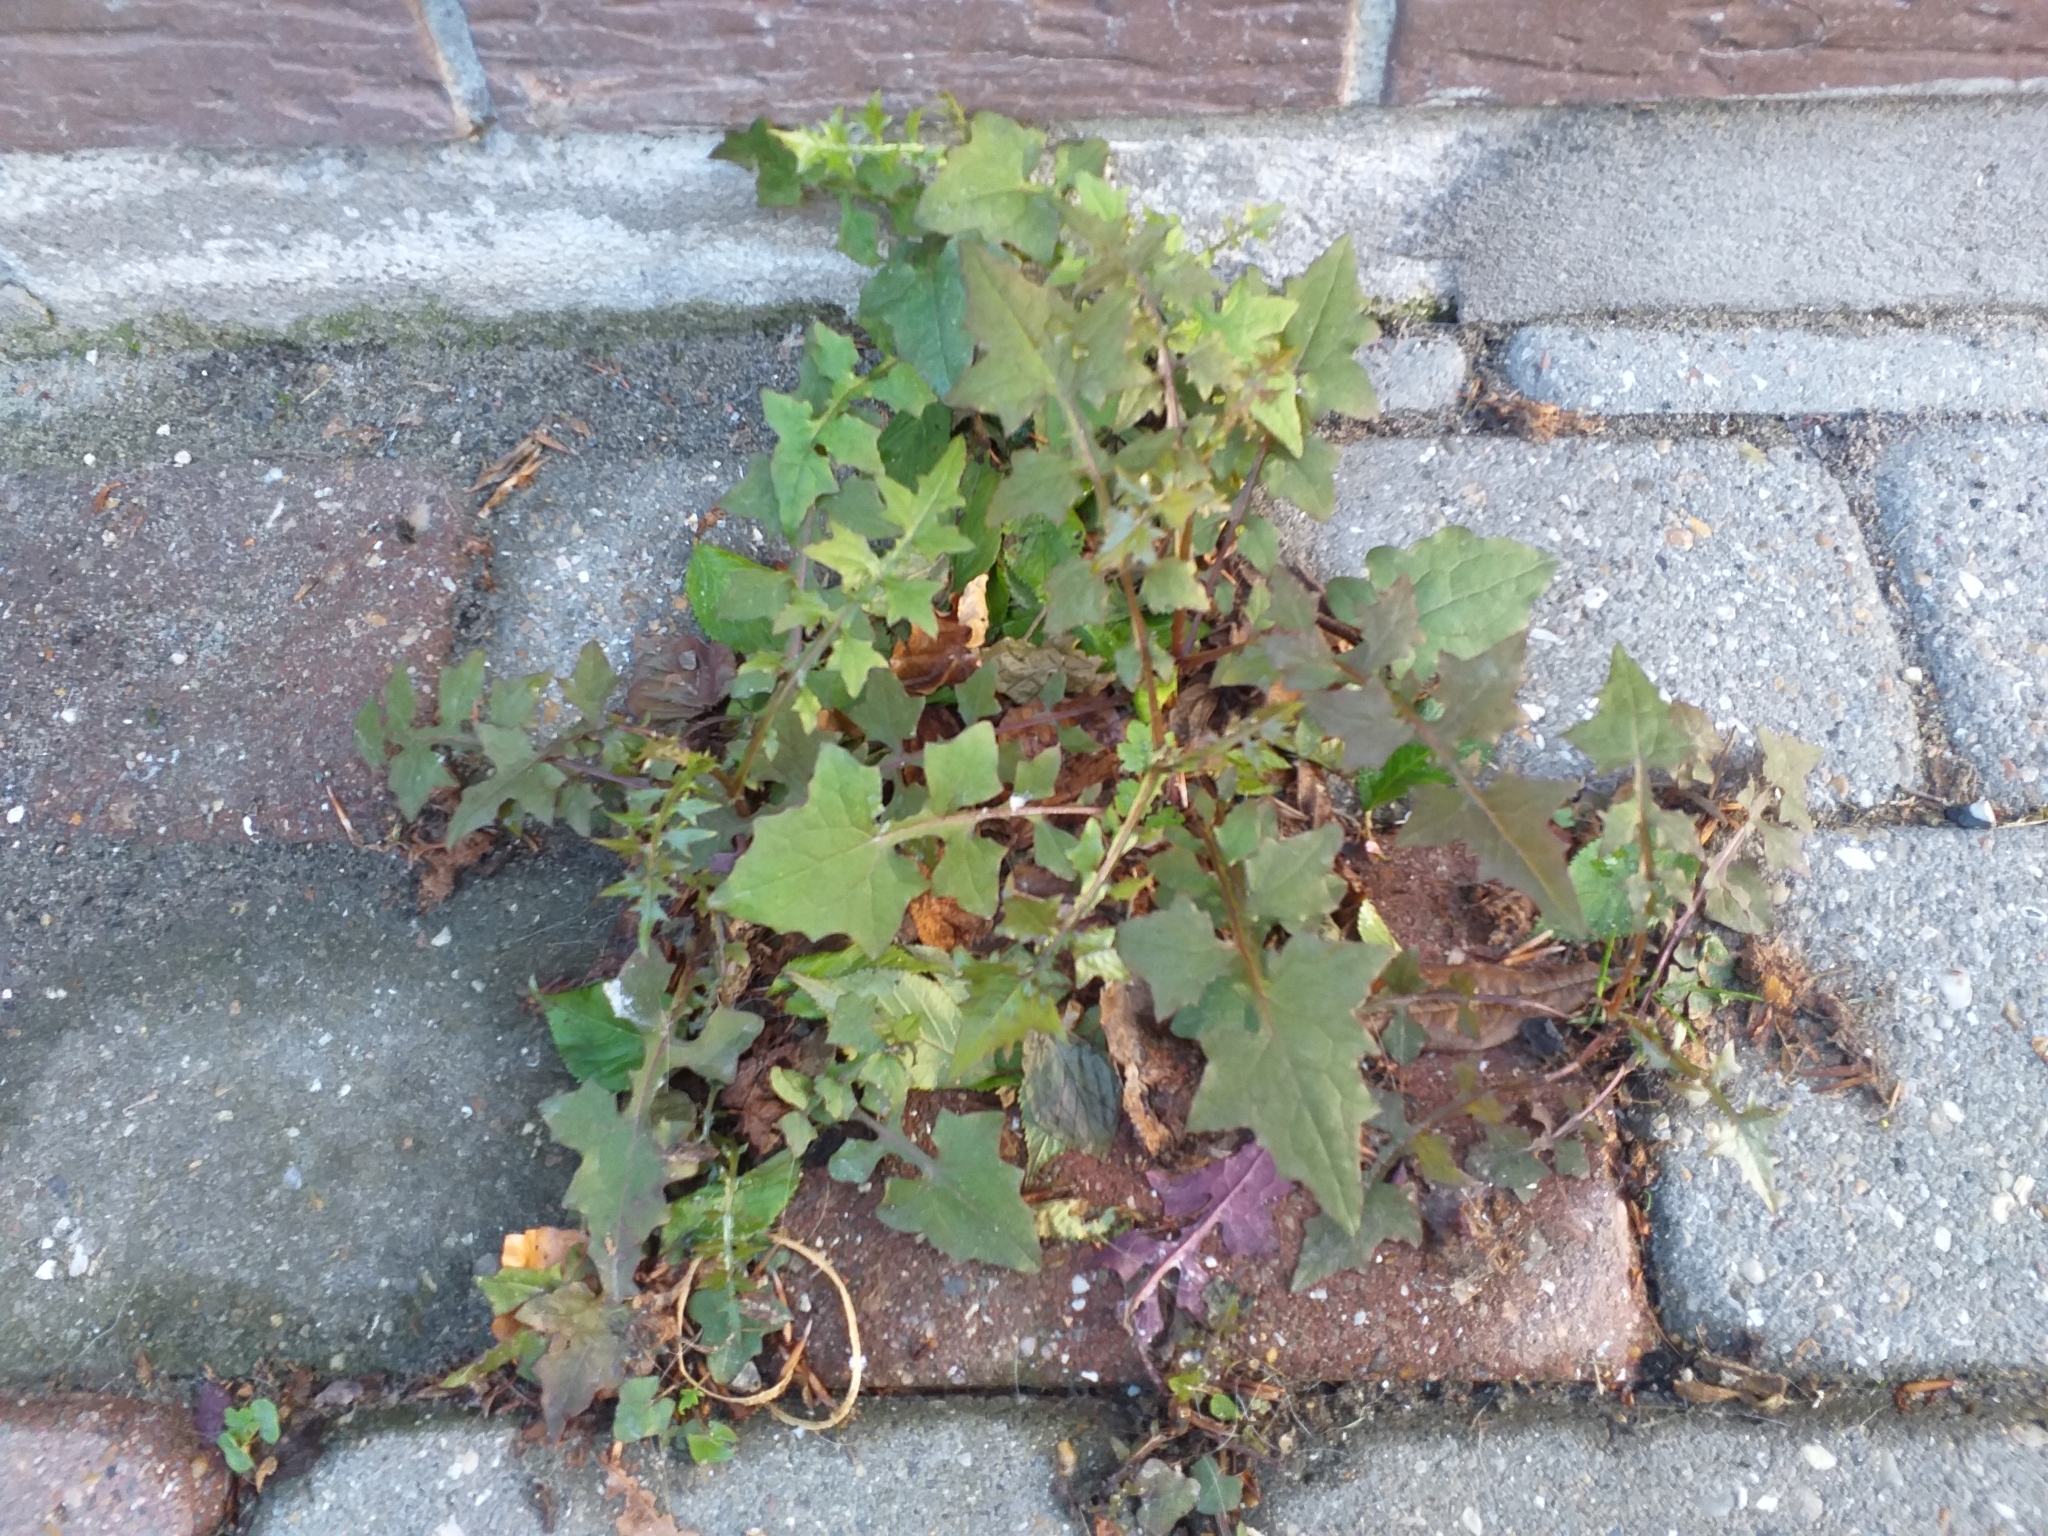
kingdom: Plantae
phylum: Tracheophyta
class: Magnoliopsida
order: Asterales
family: Asteraceae
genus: Mycelis
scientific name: Mycelis muralis
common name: Wall lettuce
